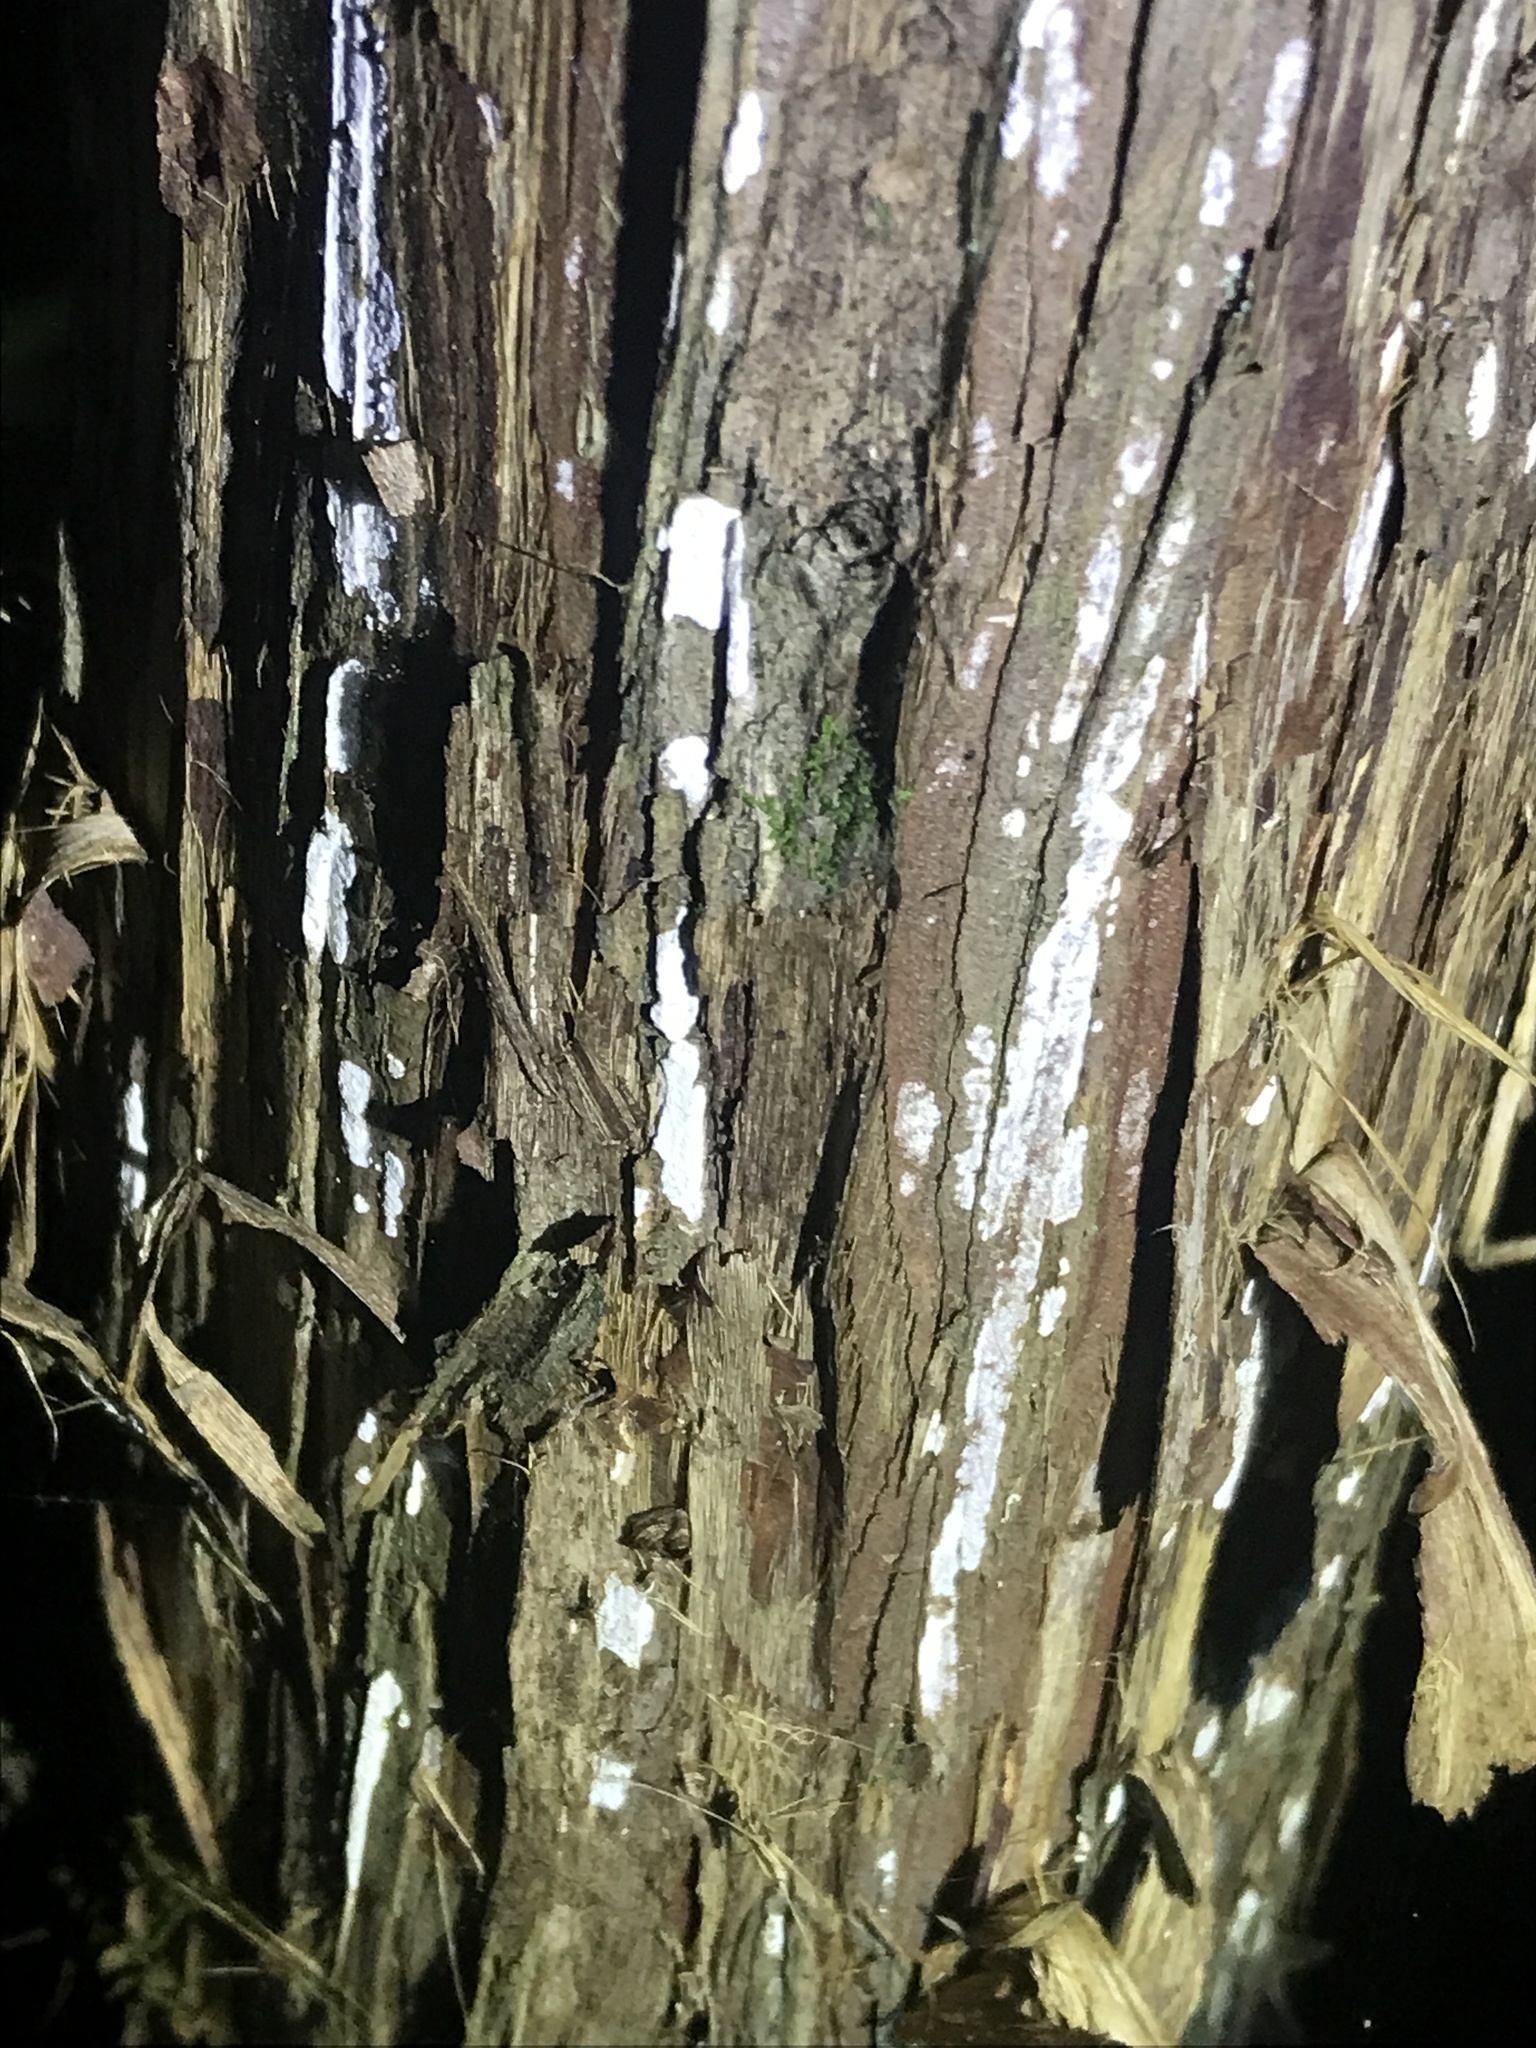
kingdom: Fungi
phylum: Basidiomycota
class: Agaricomycetes
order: Agaricales
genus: Dendrothele
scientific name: Dendrothele nivosa
